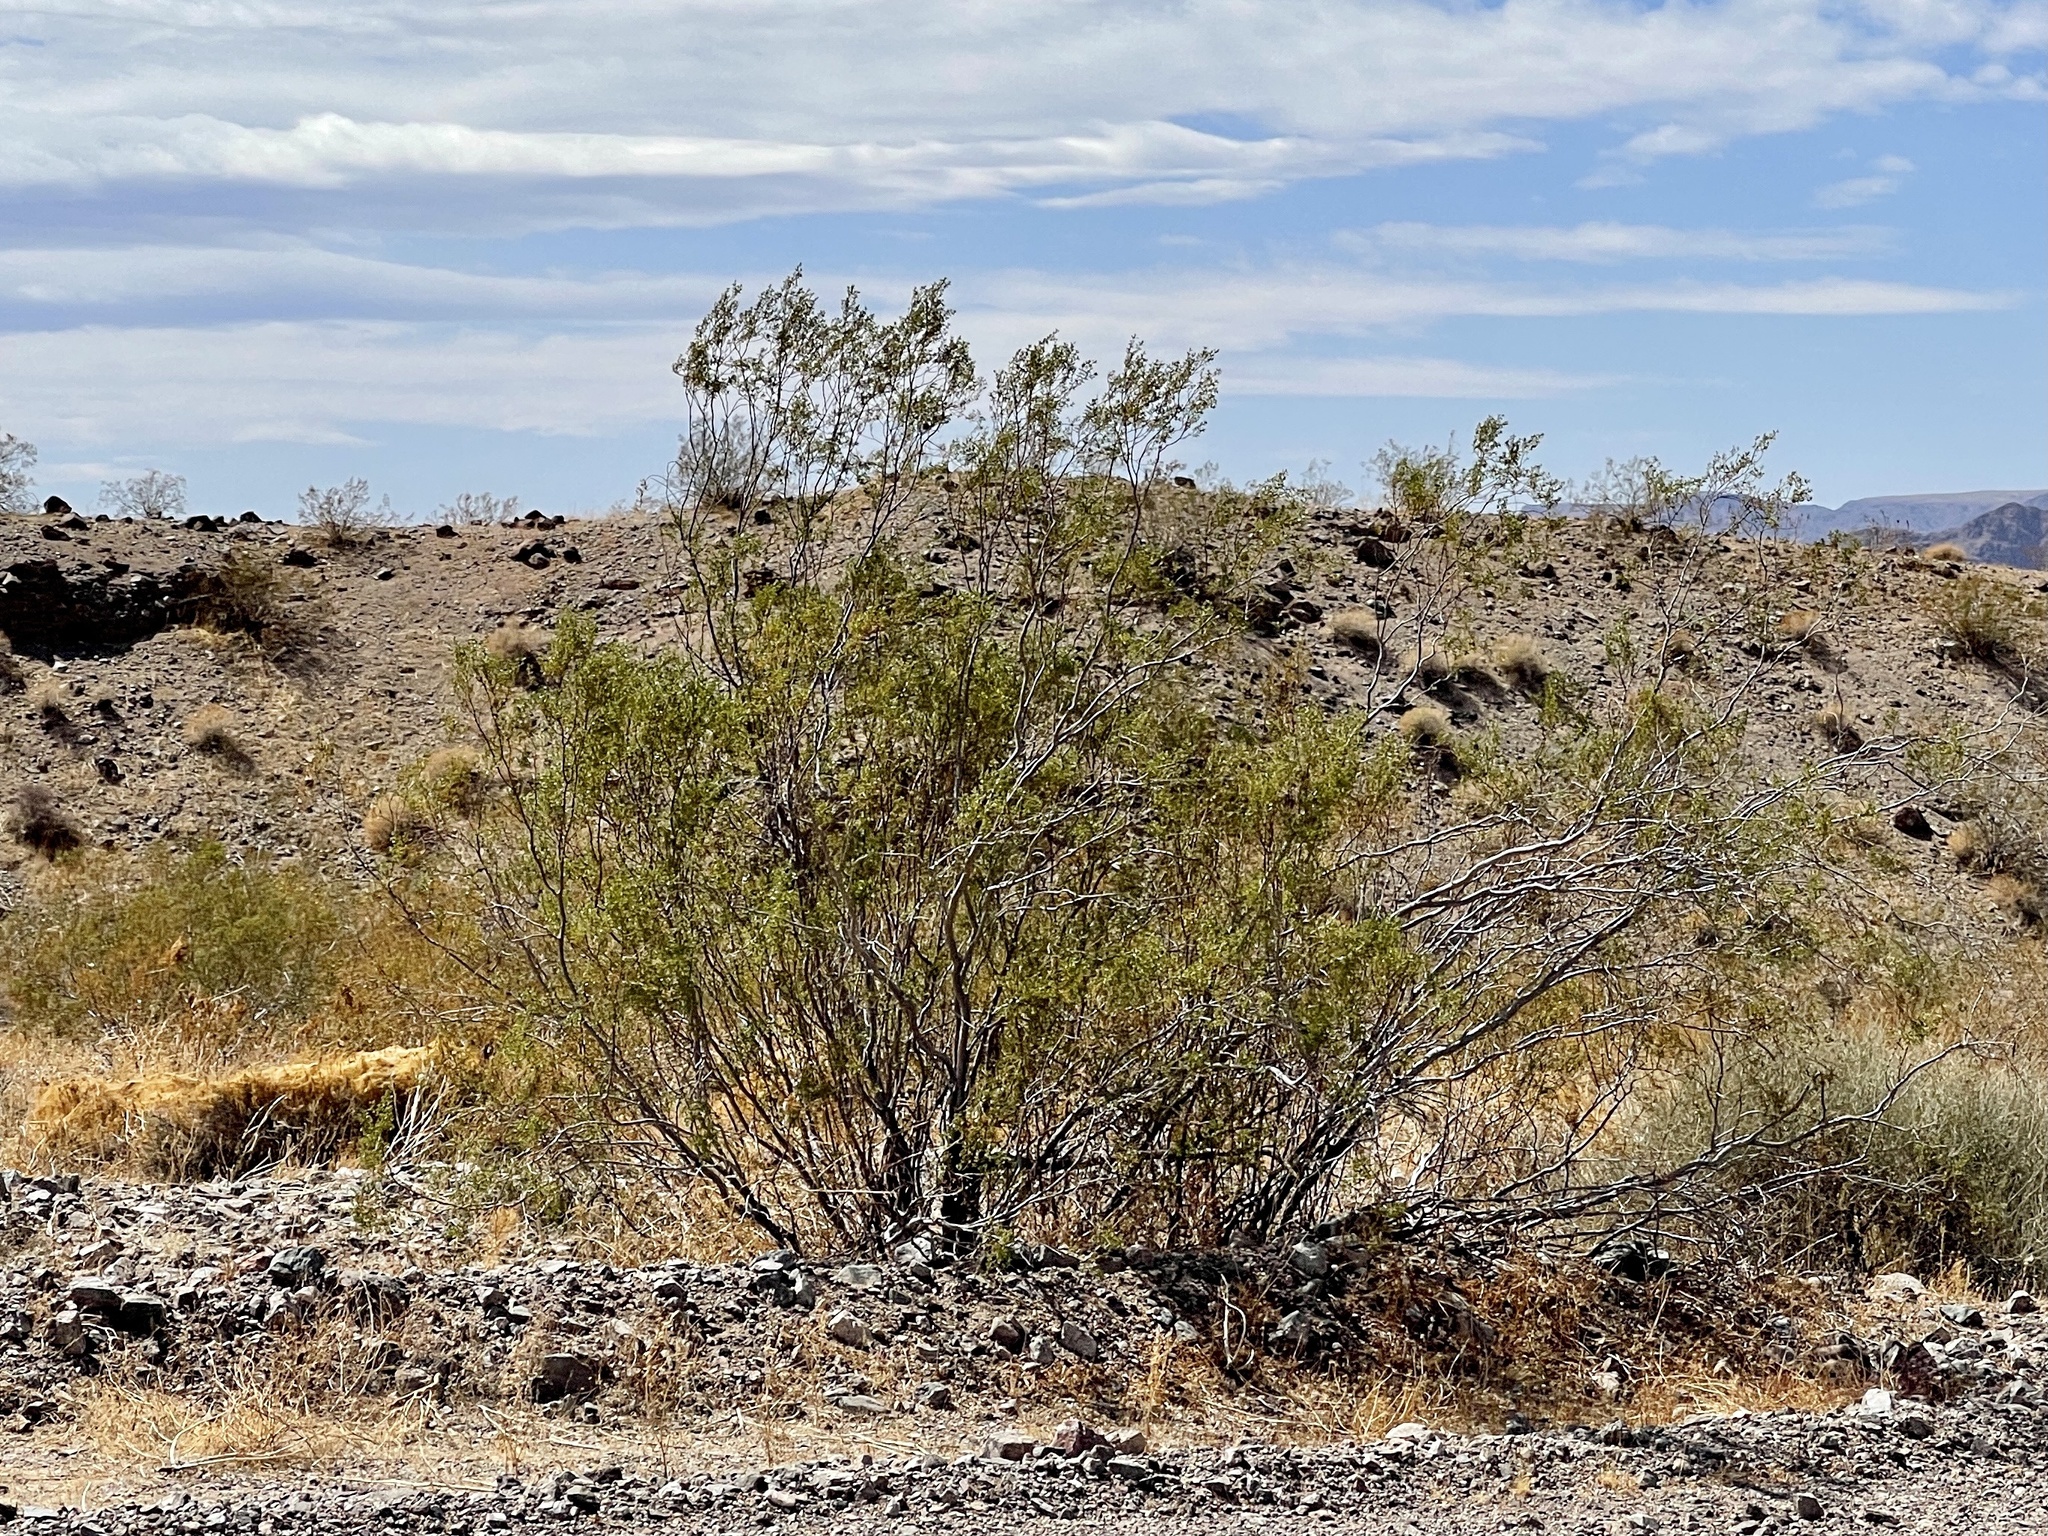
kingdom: Plantae
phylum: Tracheophyta
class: Magnoliopsida
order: Zygophyllales
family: Zygophyllaceae
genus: Larrea
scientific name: Larrea tridentata
